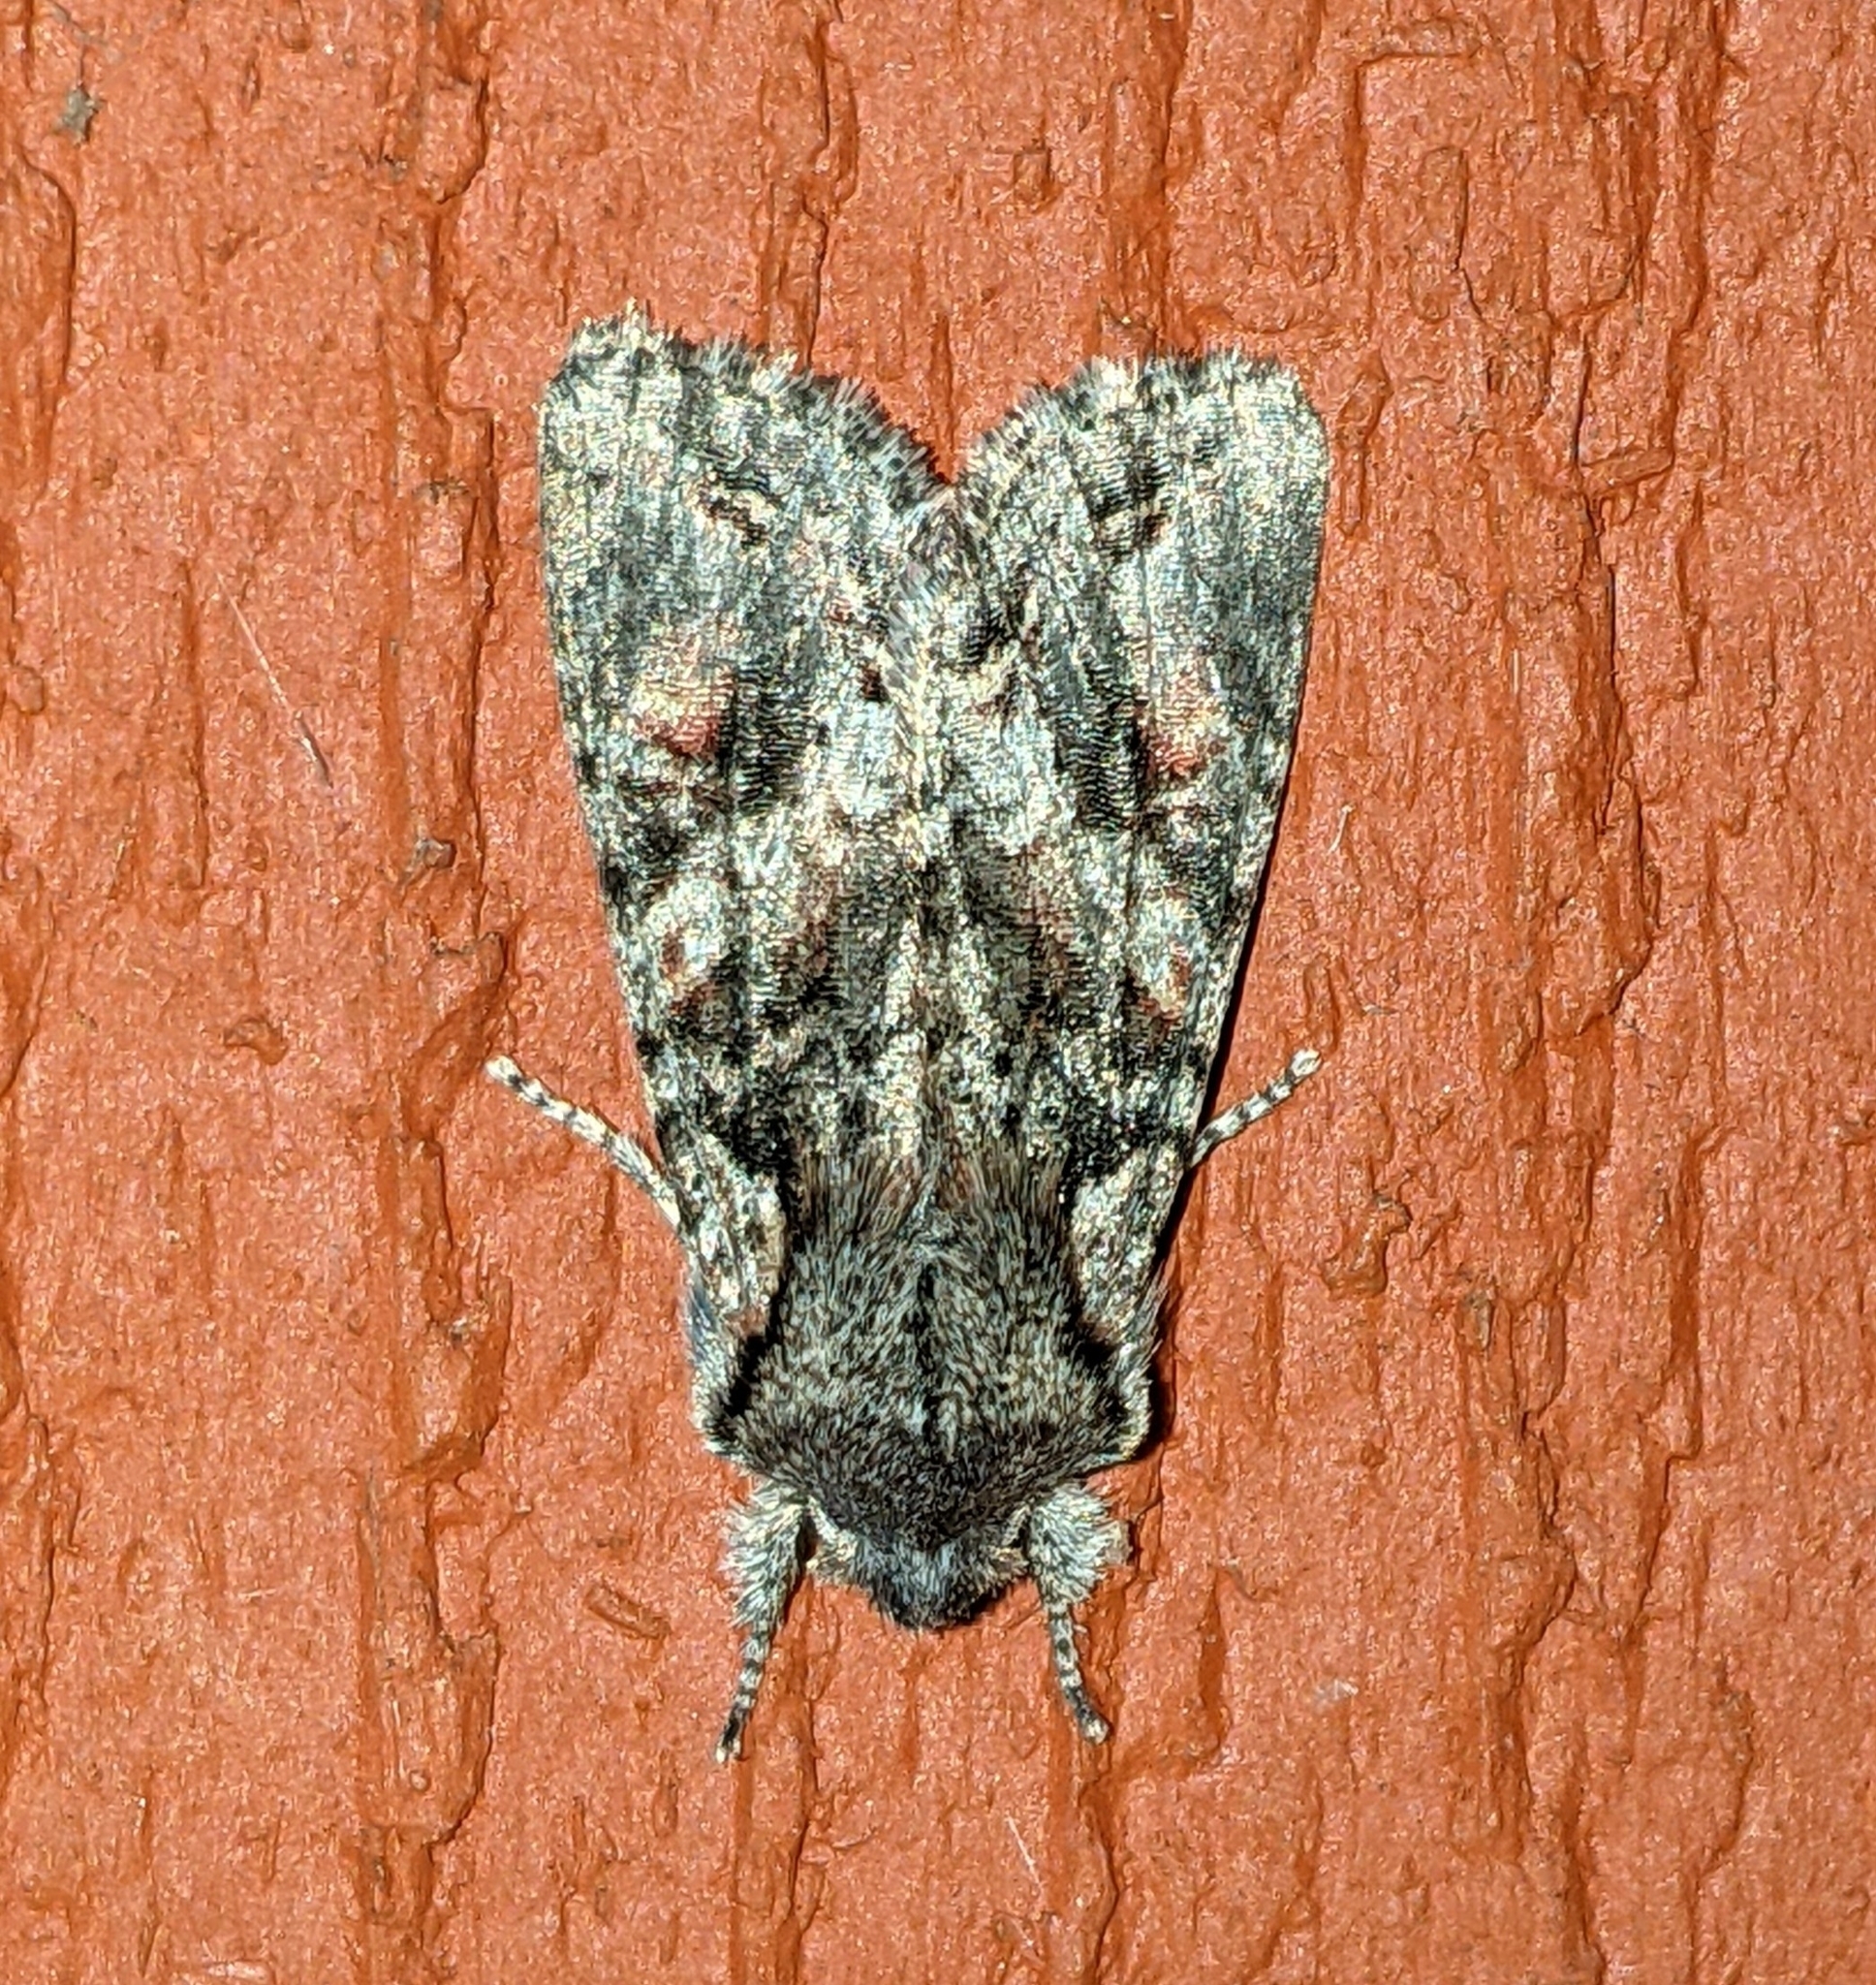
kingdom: Animalia
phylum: Arthropoda
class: Insecta
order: Lepidoptera
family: Noctuidae
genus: Egira
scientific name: Egira hiemalis
